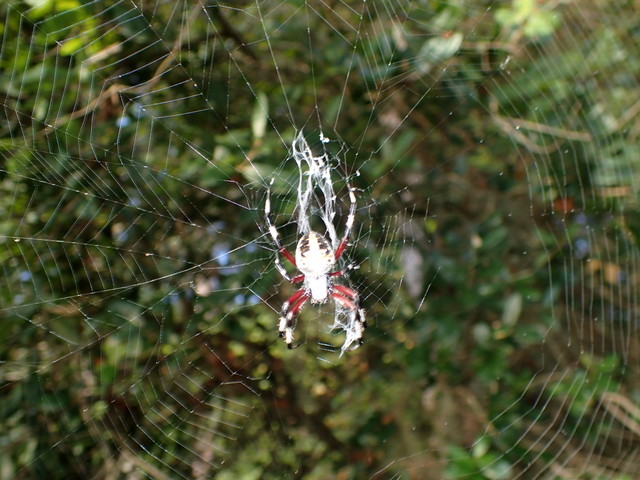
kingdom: Animalia
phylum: Arthropoda
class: Arachnida
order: Araneae
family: Araneidae
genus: Neoscona
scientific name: Neoscona domiciliorum
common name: Red-femured spotted orbweaver
